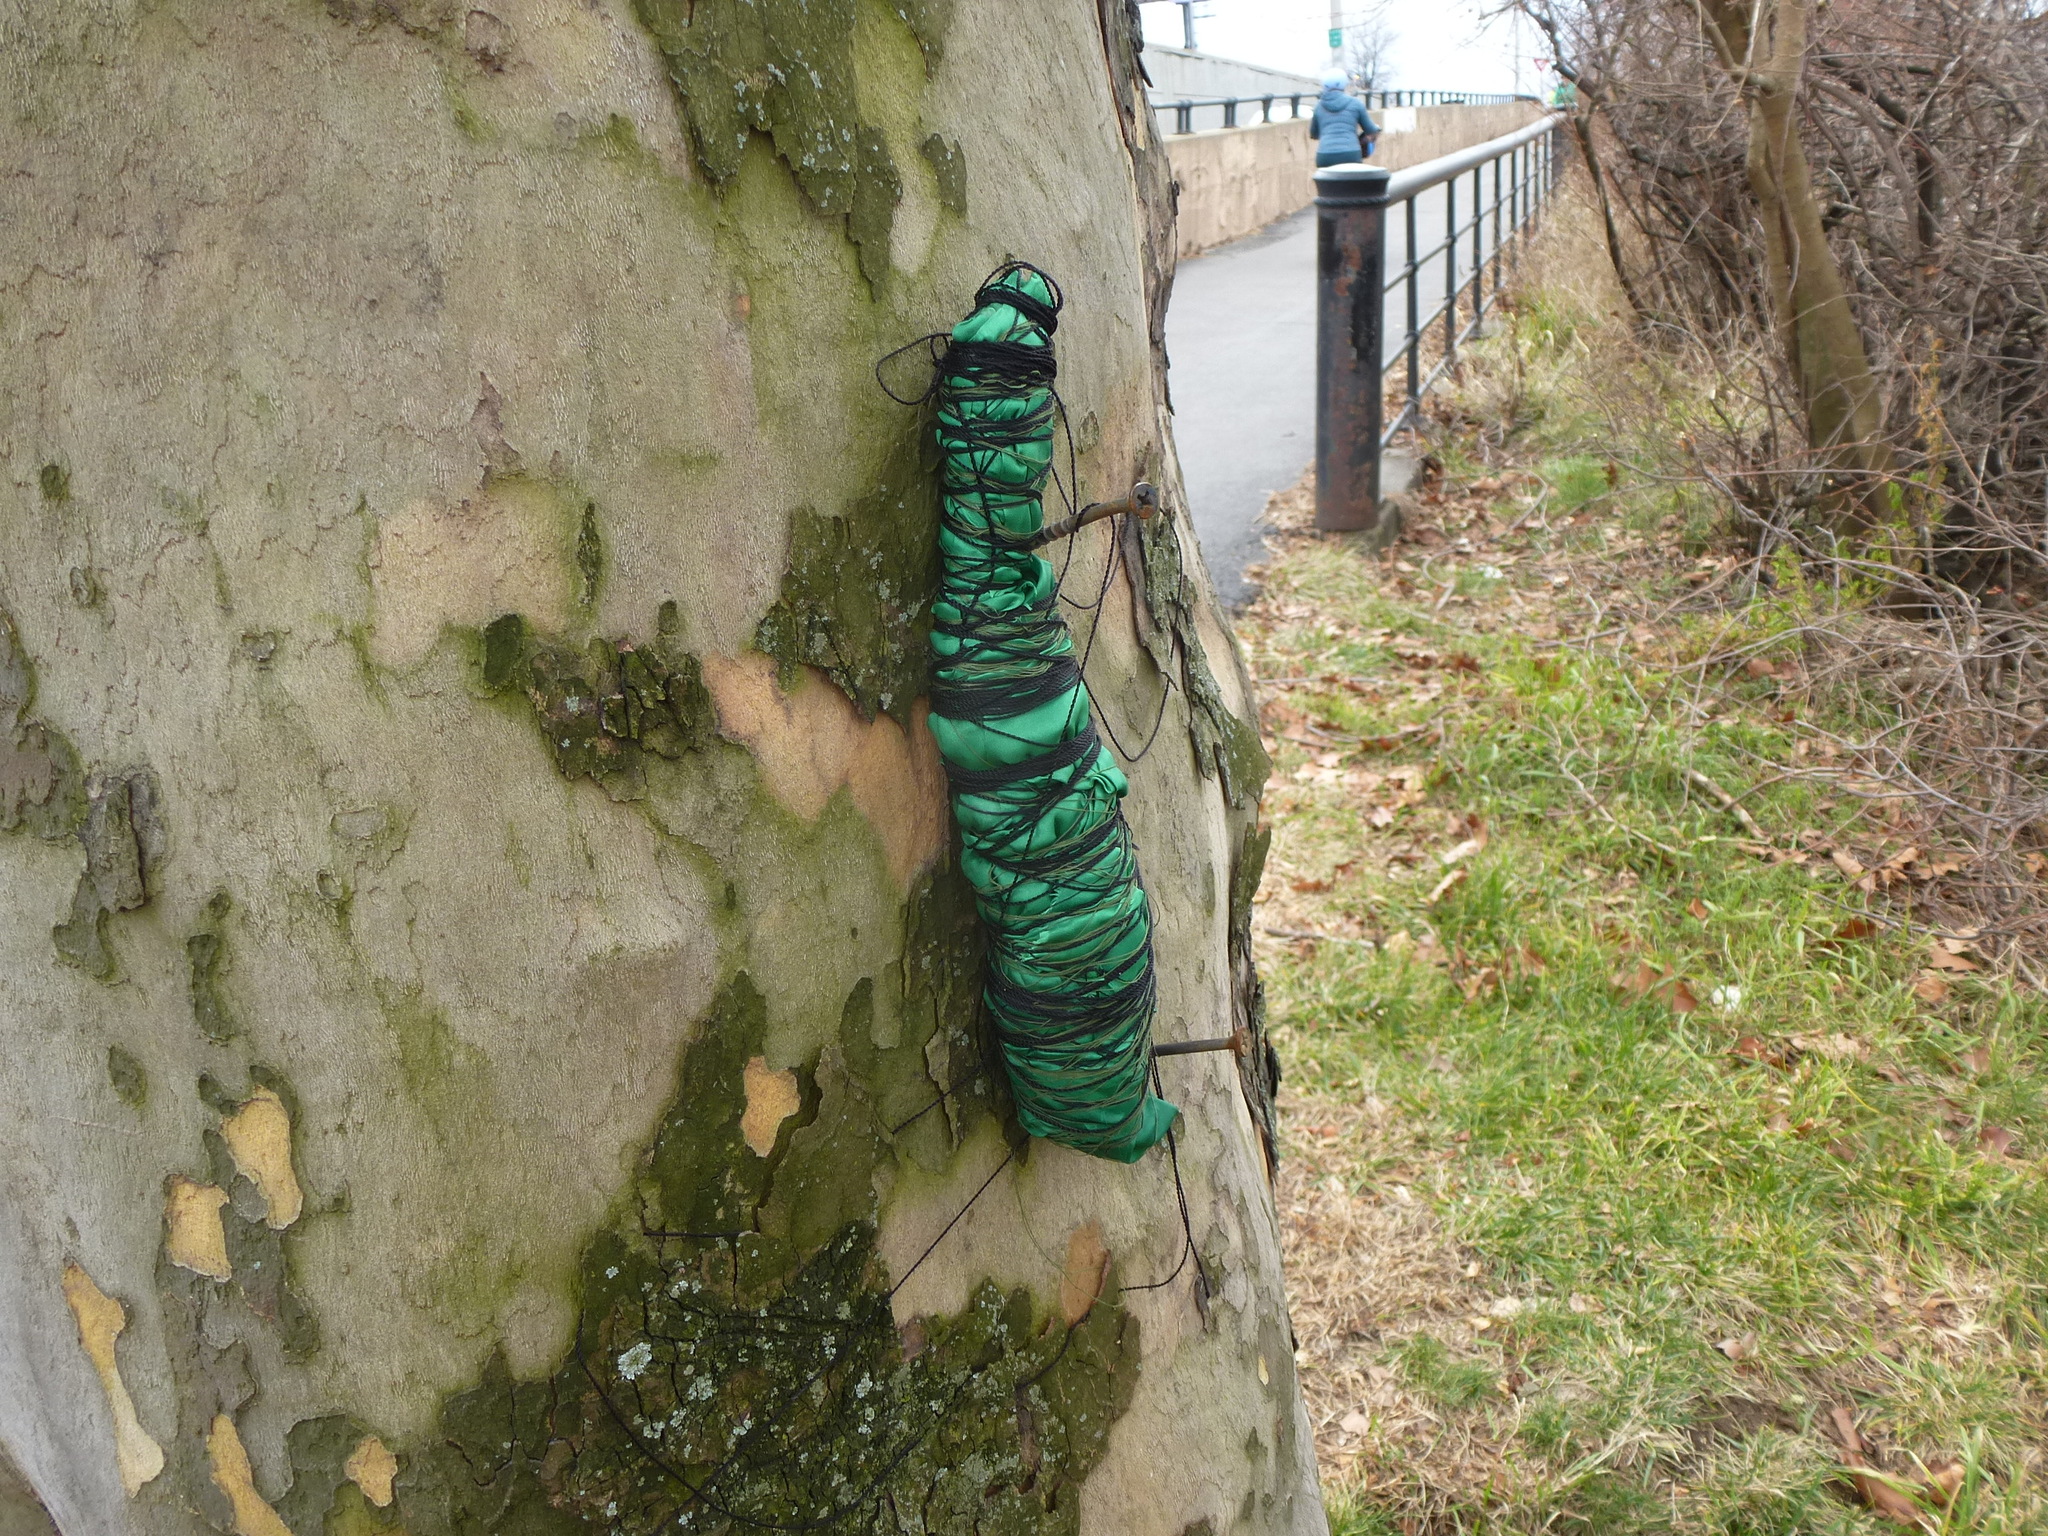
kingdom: Plantae
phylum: Tracheophyta
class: Magnoliopsida
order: Proteales
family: Platanaceae
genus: Platanus
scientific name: Platanus hispanica
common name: London plane
